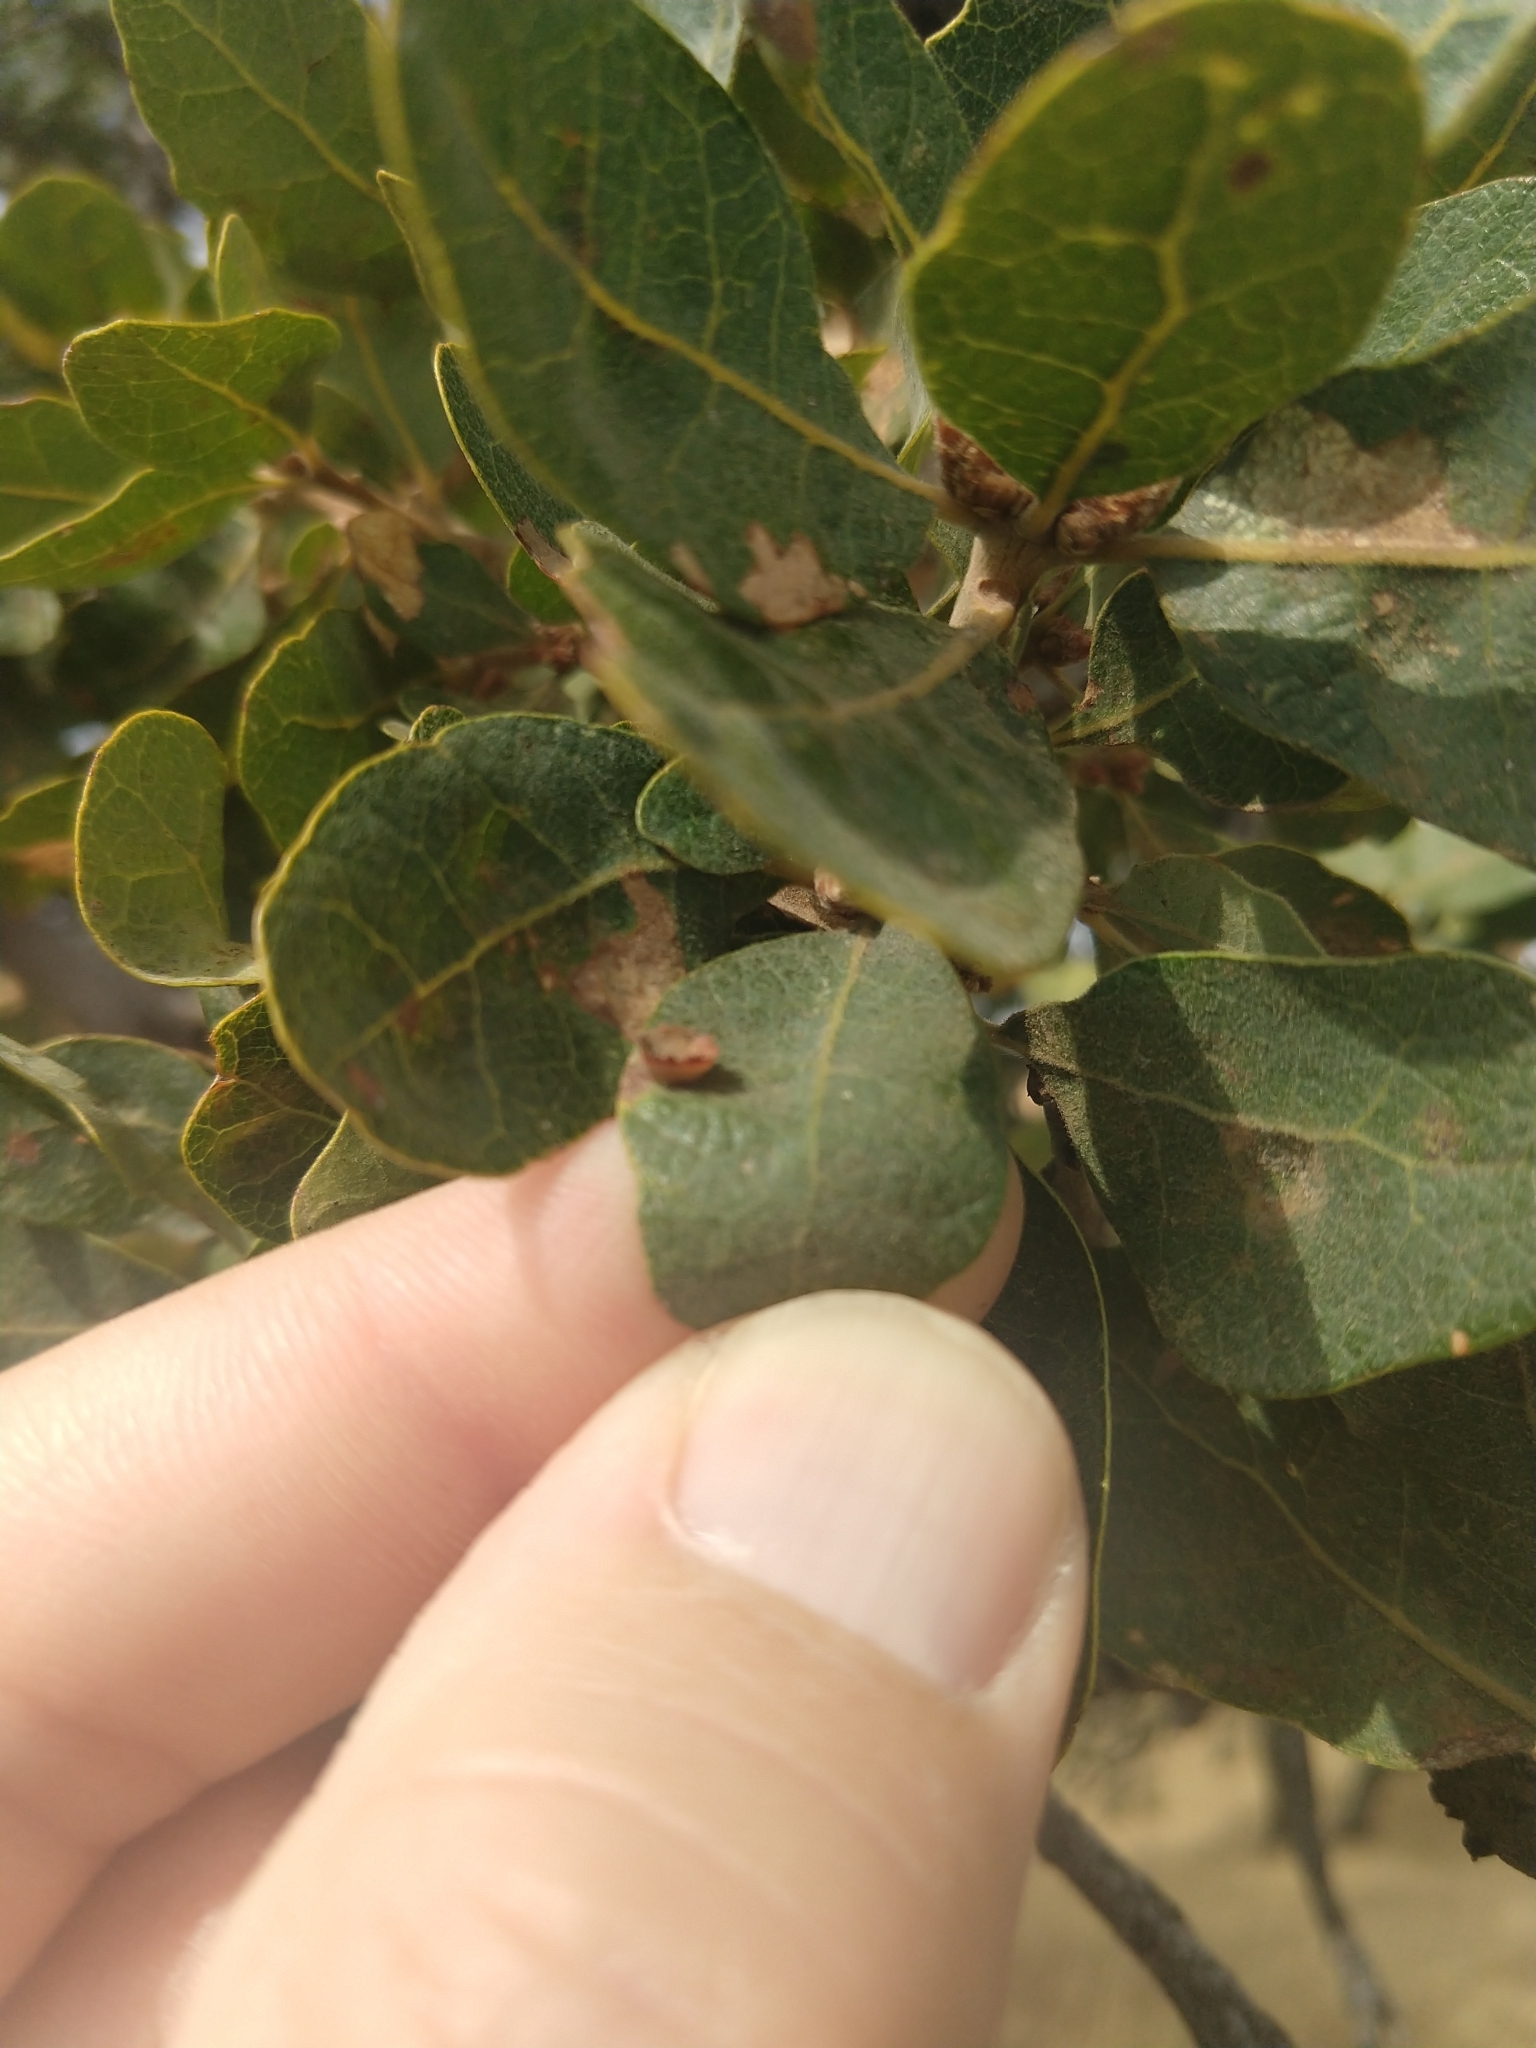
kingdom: Animalia
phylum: Arthropoda
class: Insecta
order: Hymenoptera
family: Cynipidae
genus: Andricus
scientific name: Andricus
